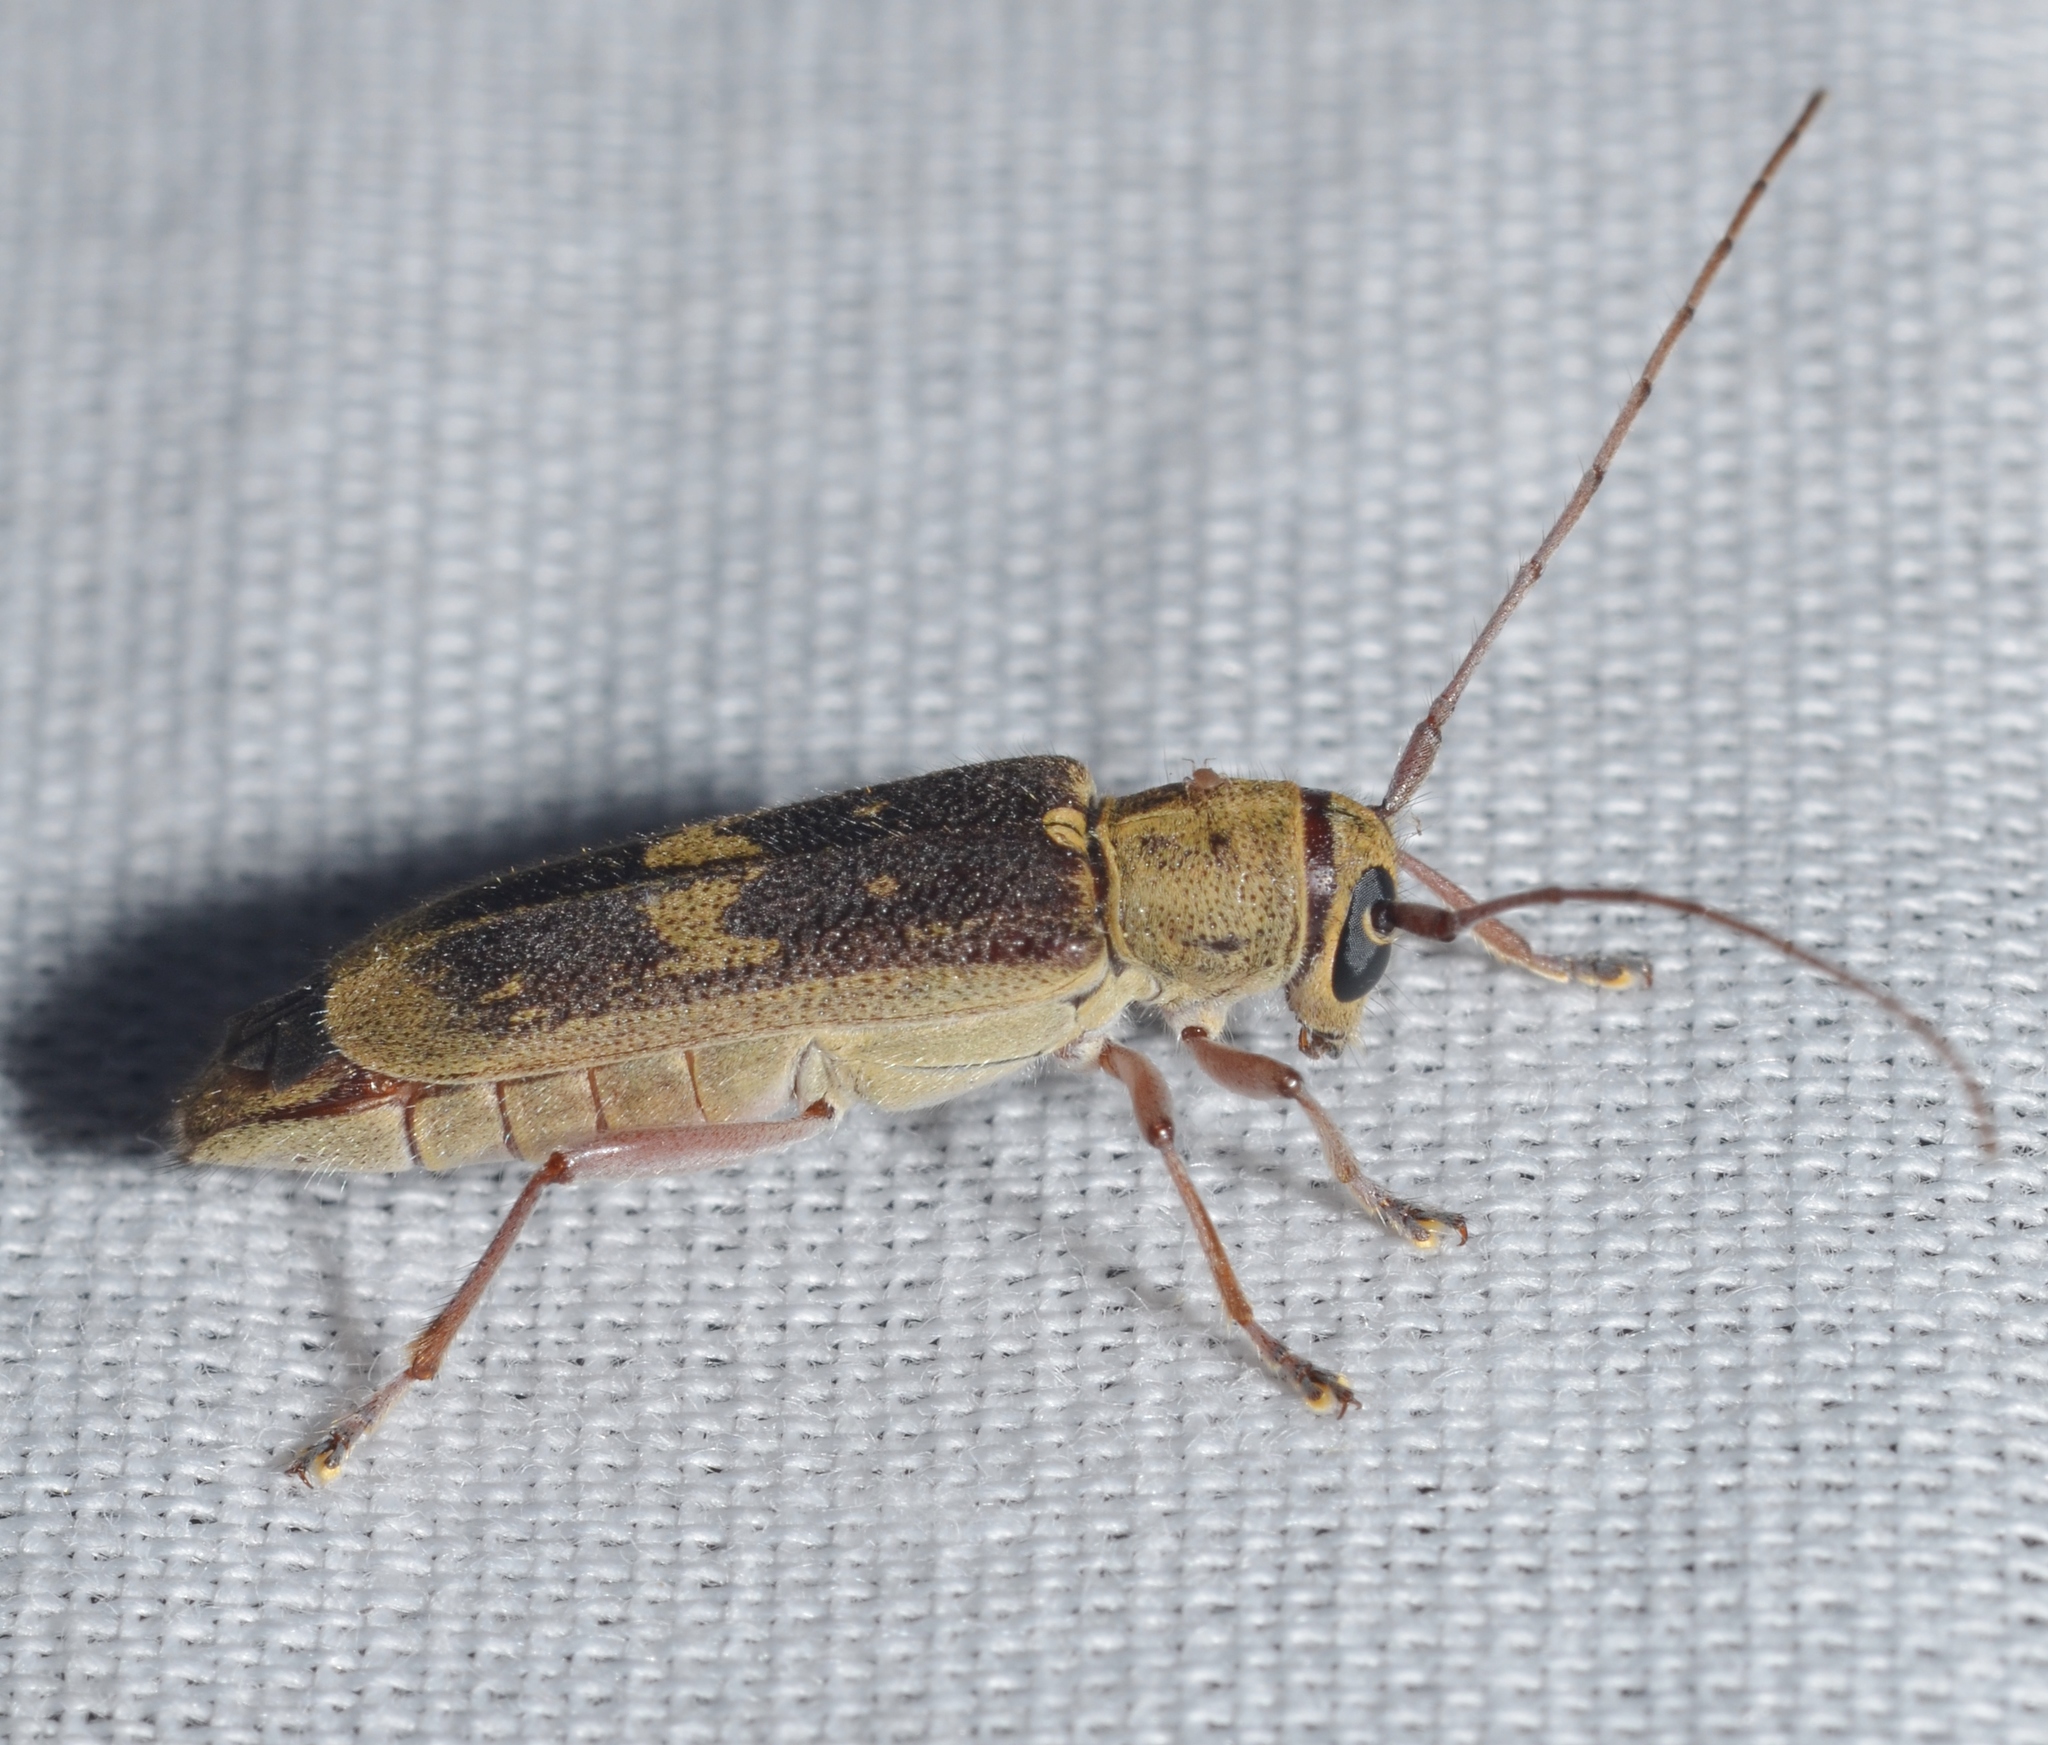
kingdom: Animalia
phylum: Arthropoda
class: Insecta
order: Coleoptera
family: Cerambycidae
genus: Saperda
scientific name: Saperda discoidea
